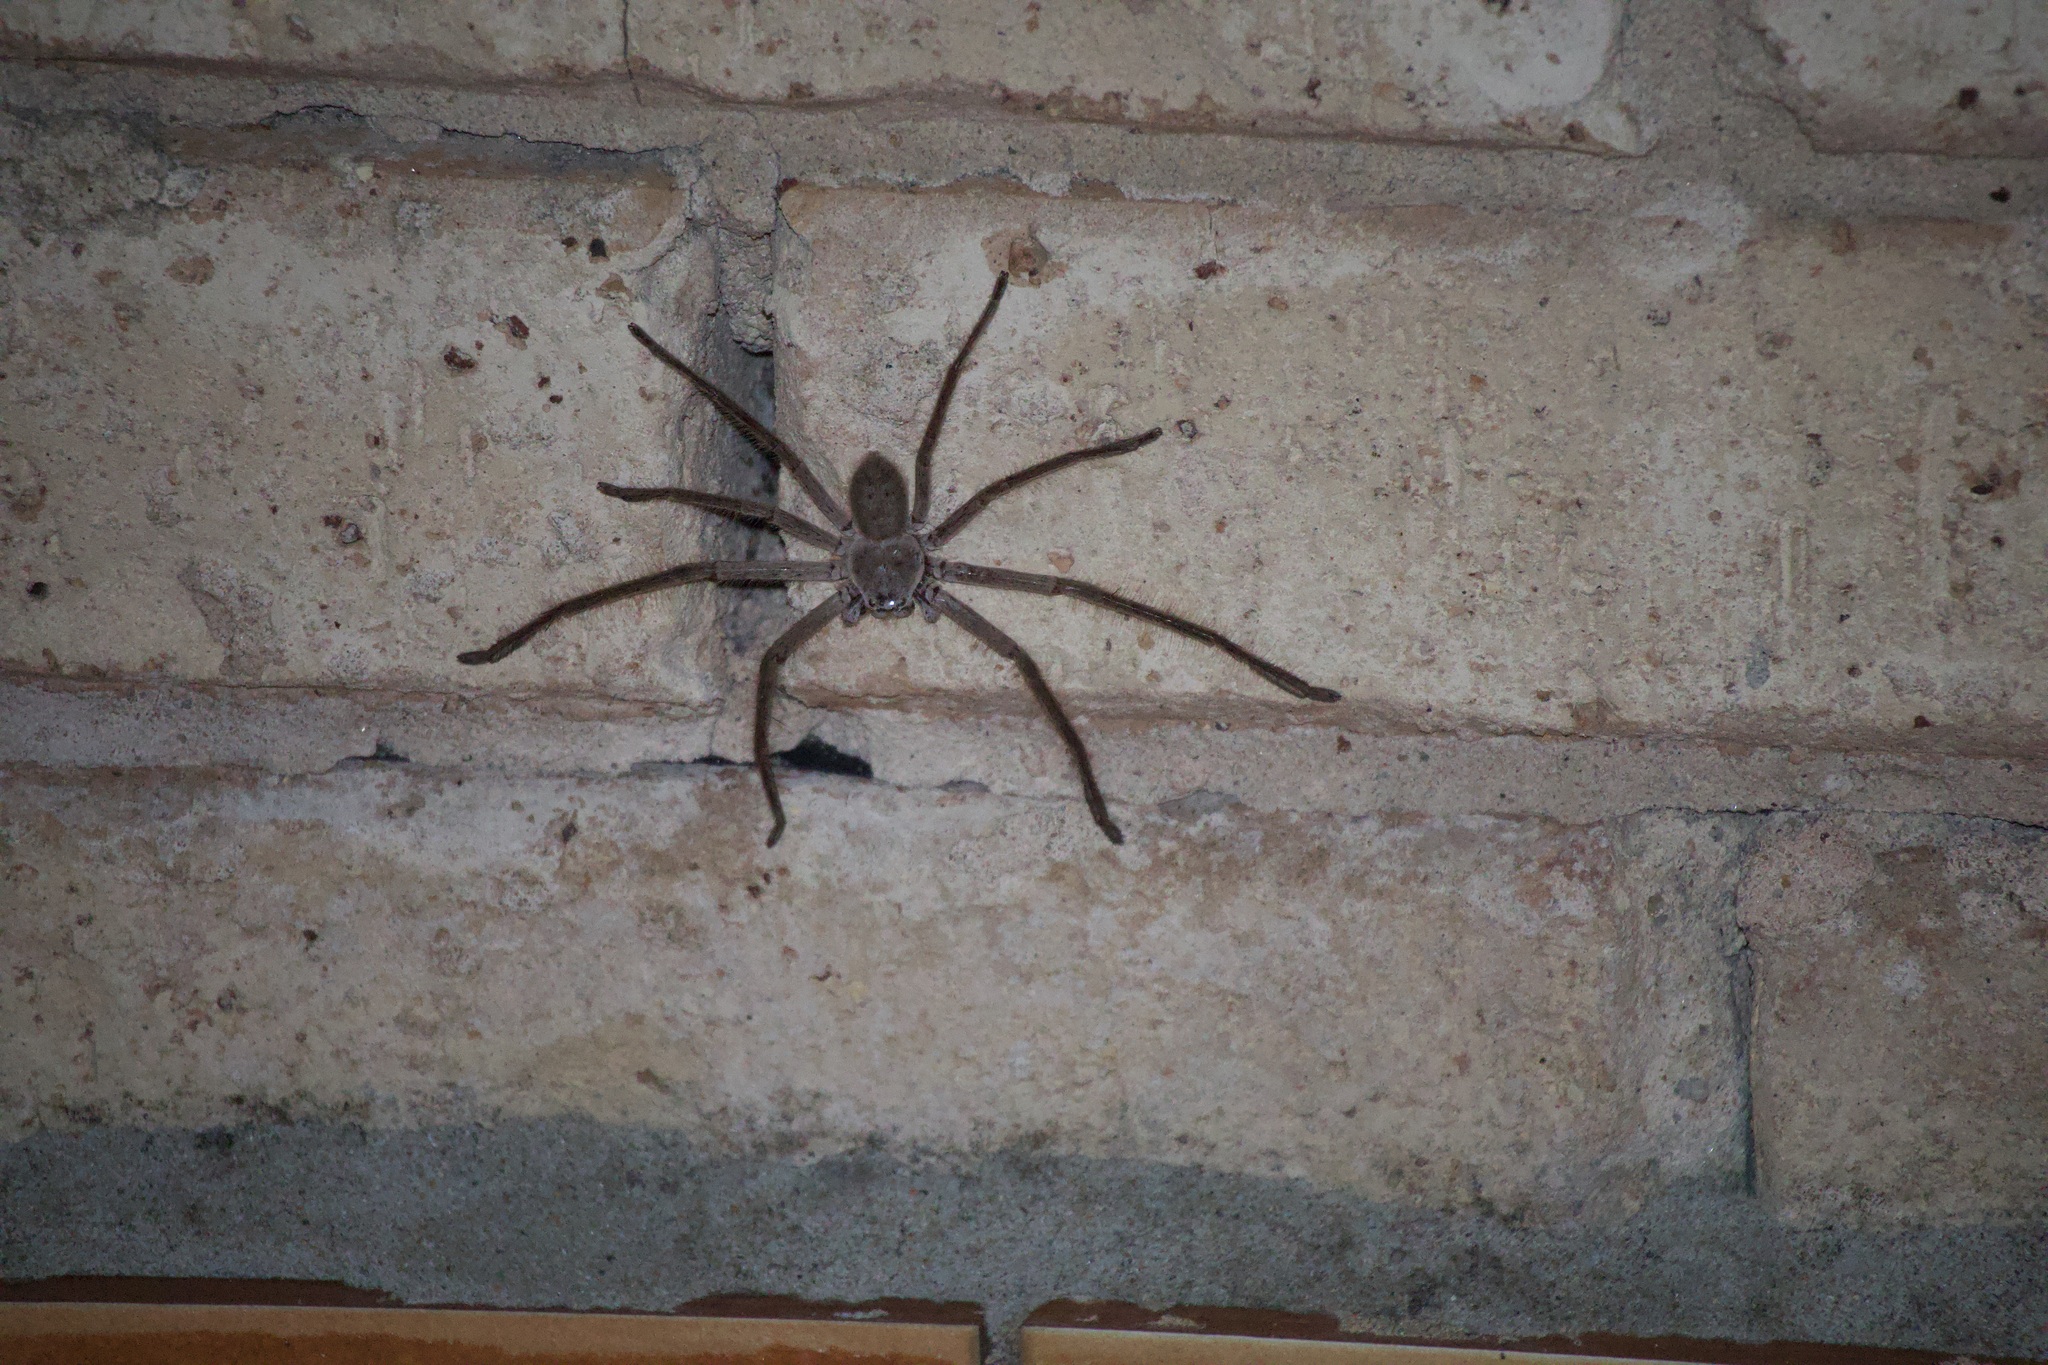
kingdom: Animalia
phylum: Arthropoda
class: Arachnida
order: Araneae
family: Sparassidae
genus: Isopeda
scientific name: Isopeda villosa
